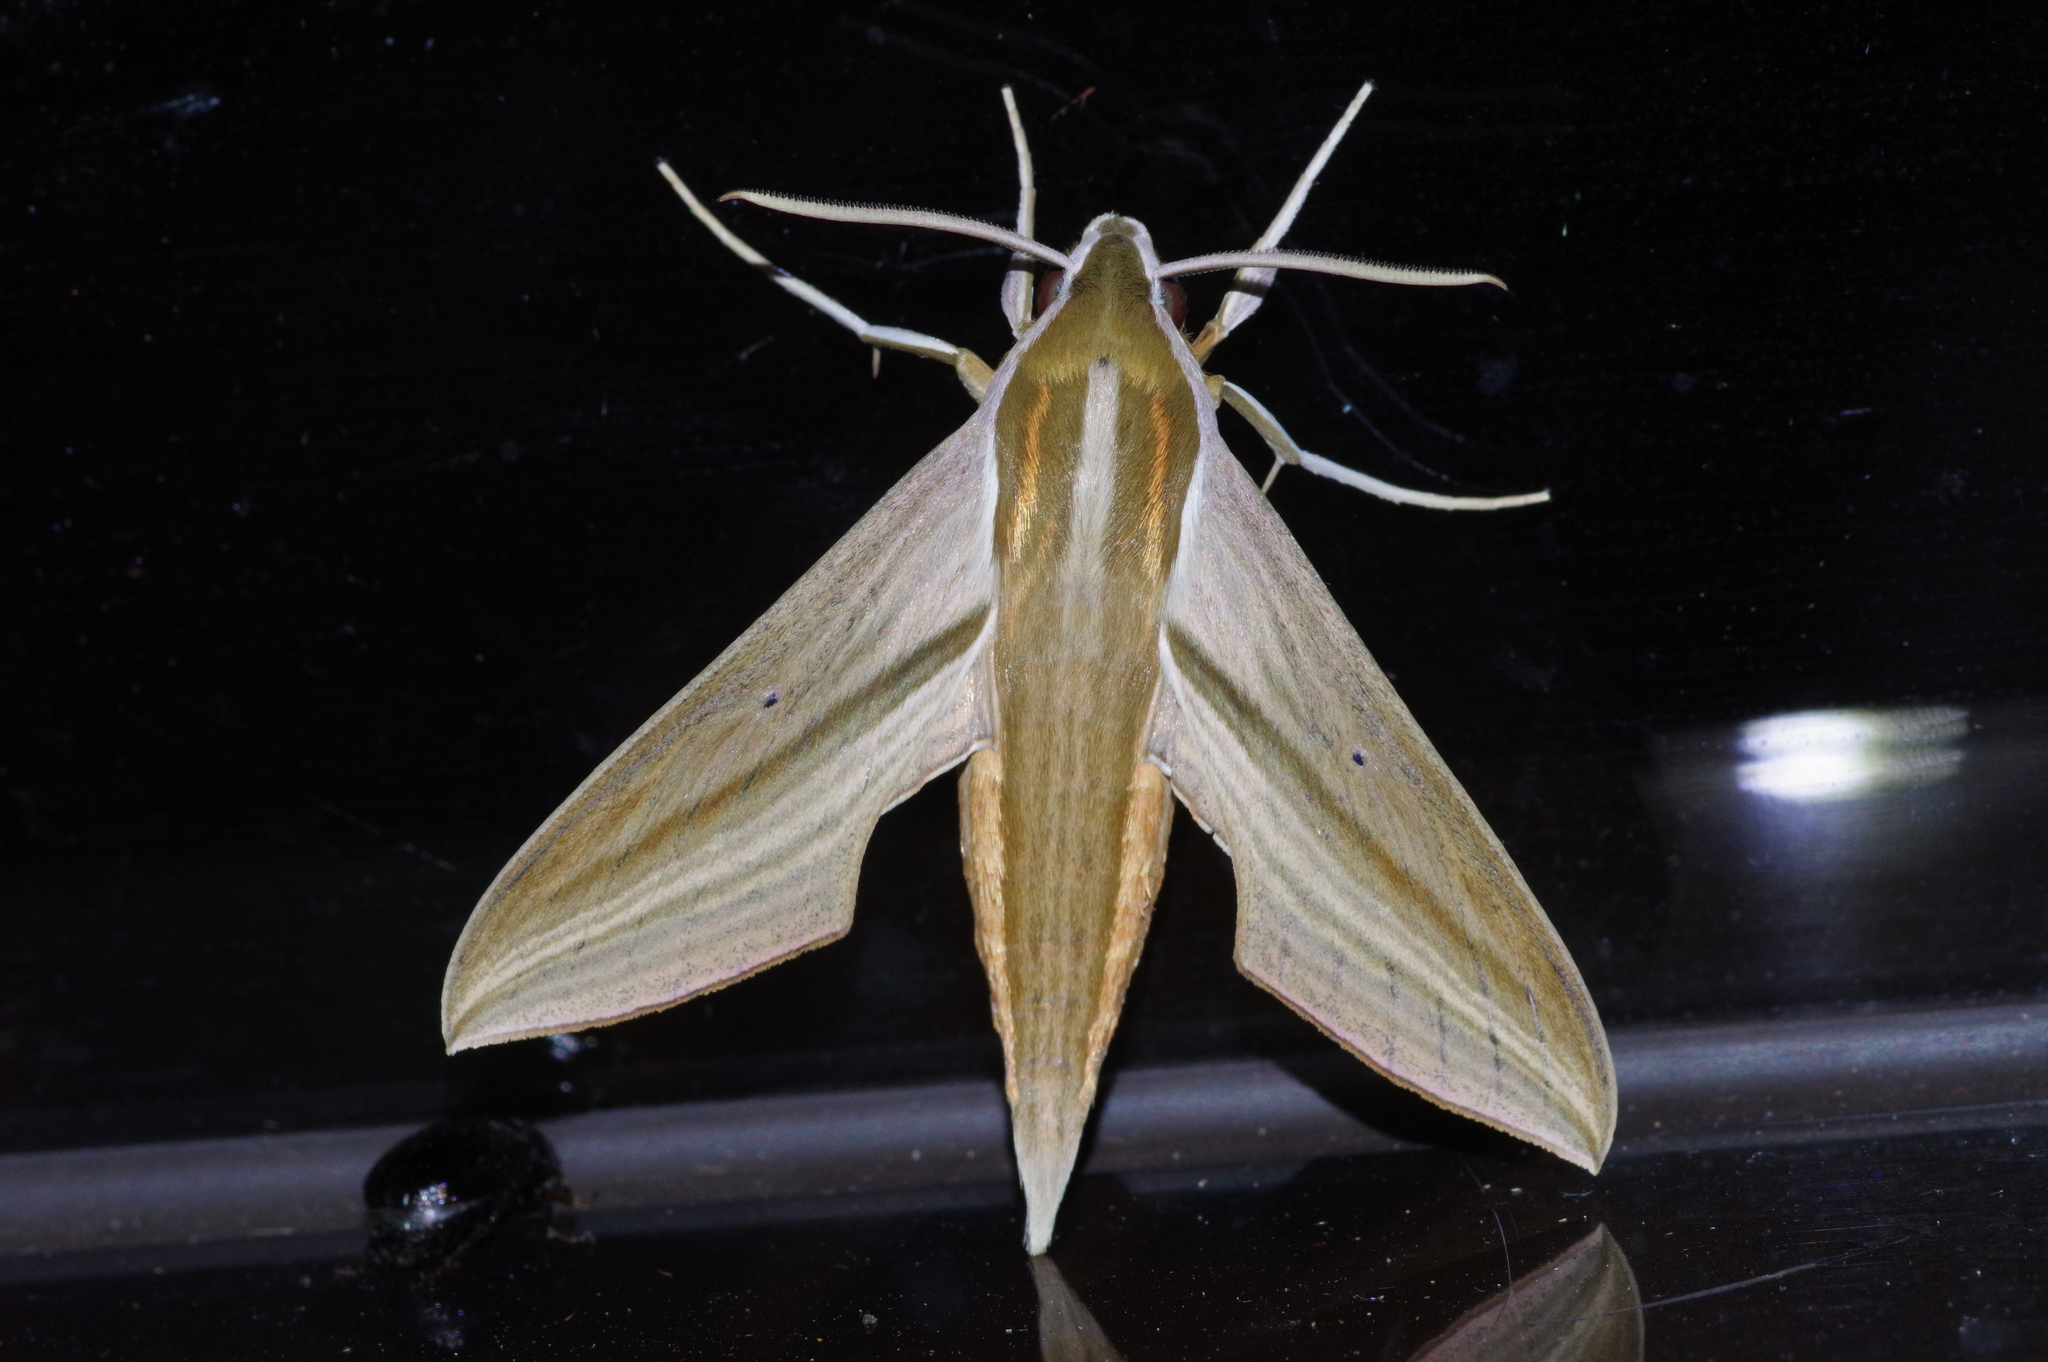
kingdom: Animalia
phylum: Arthropoda
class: Insecta
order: Lepidoptera
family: Sphingidae
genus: Theretra
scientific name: Theretra japonica
